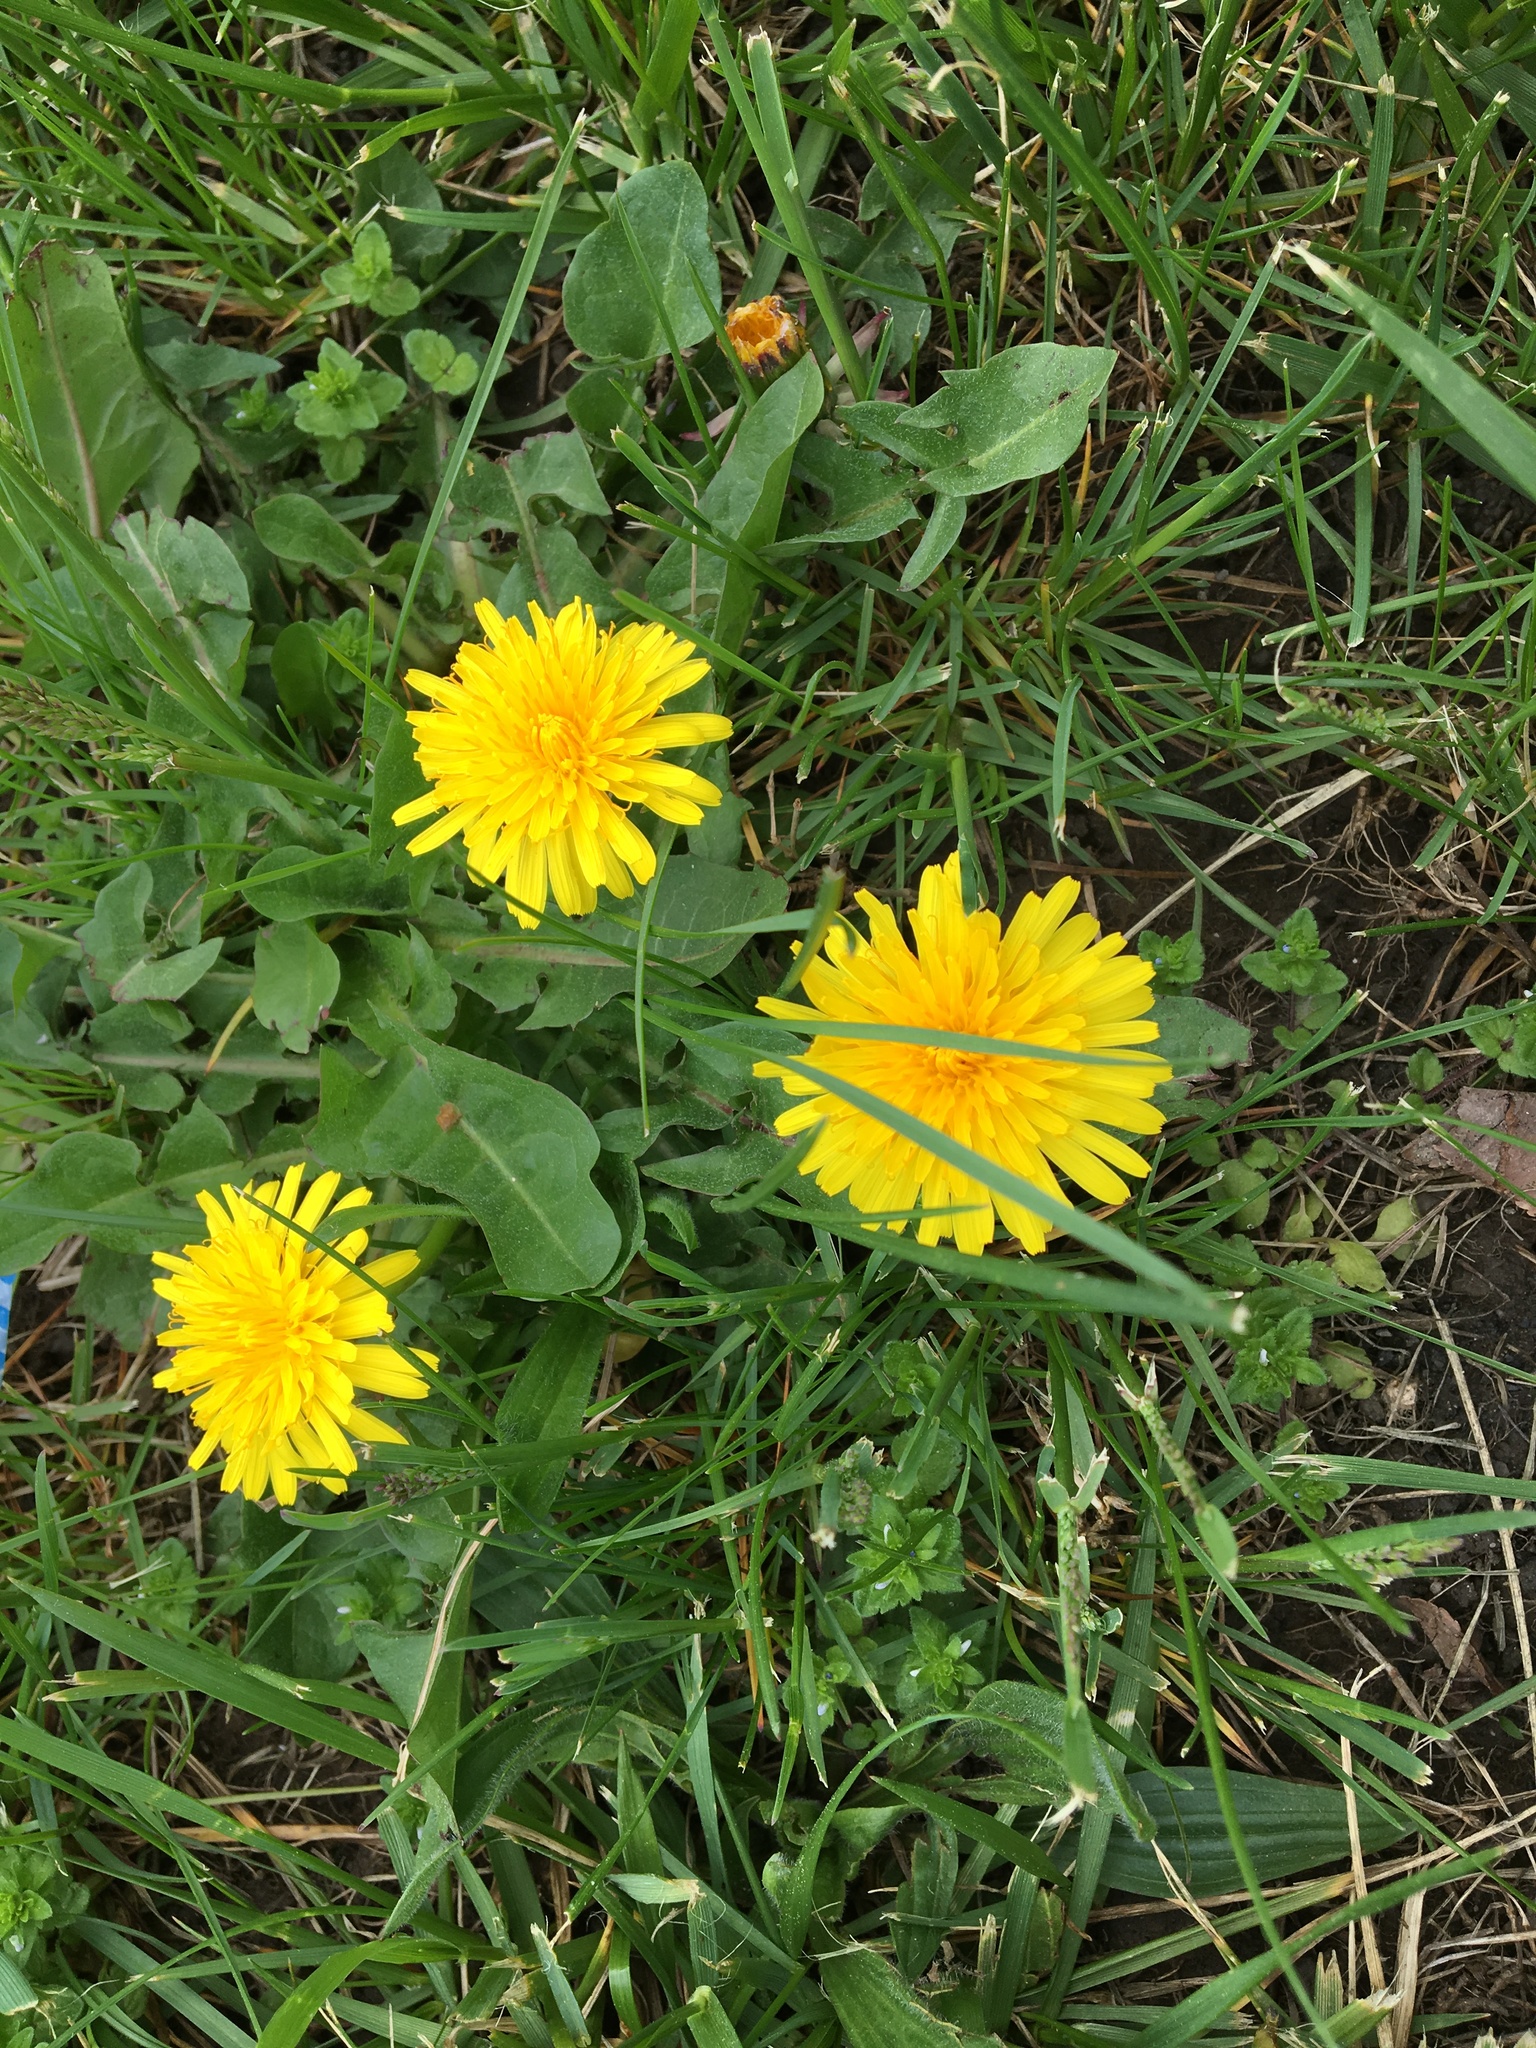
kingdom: Plantae
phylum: Tracheophyta
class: Magnoliopsida
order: Asterales
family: Asteraceae
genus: Taraxacum
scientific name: Taraxacum officinale
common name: Common dandelion
